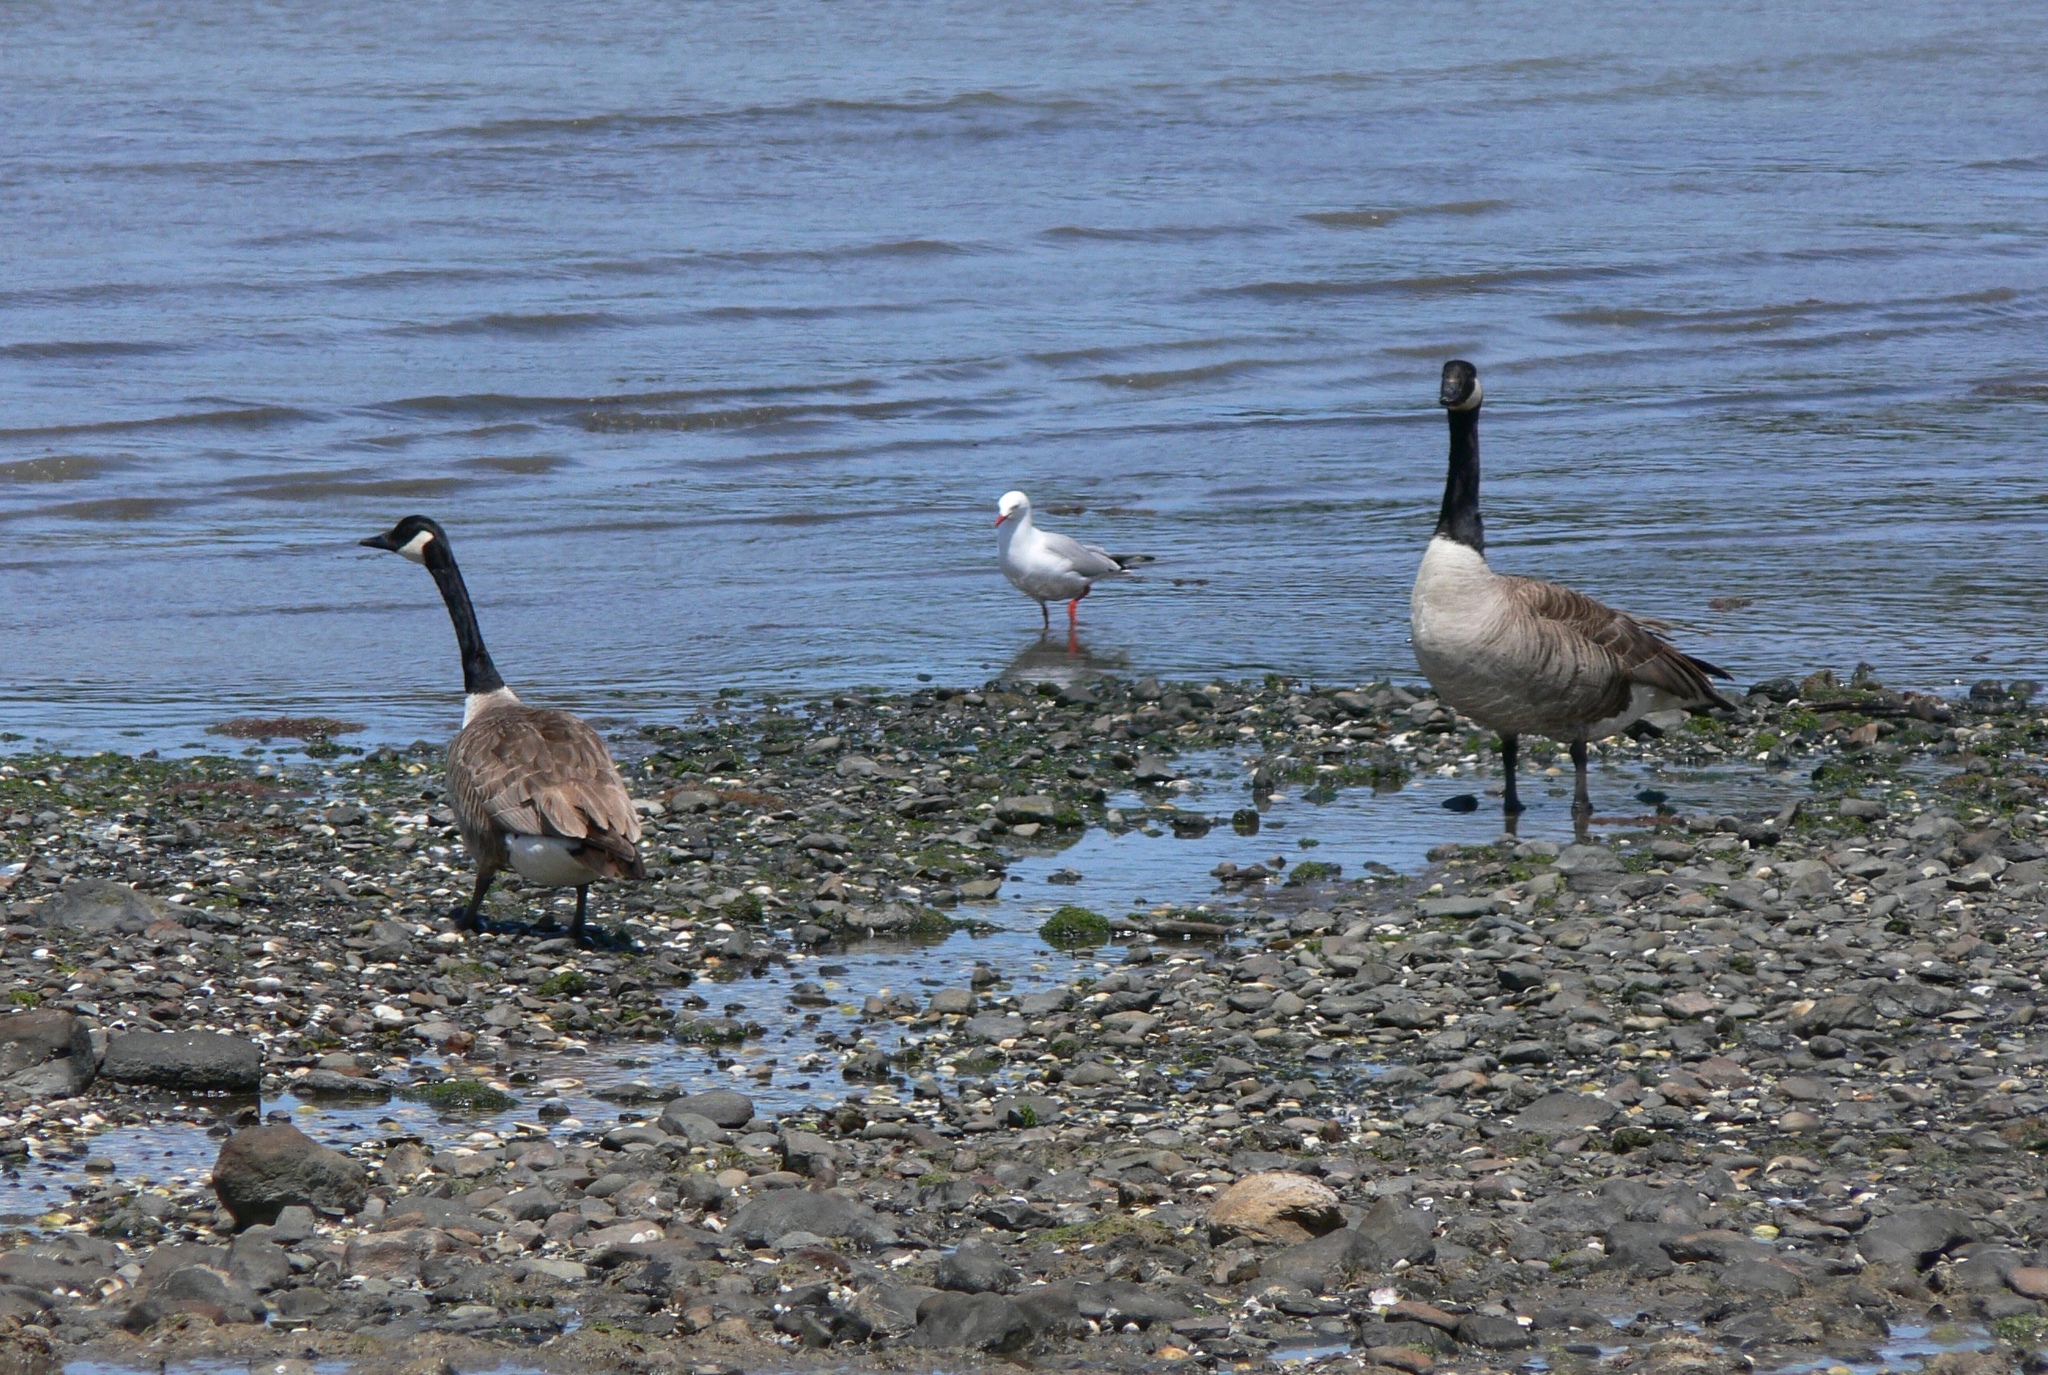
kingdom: Animalia
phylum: Chordata
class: Aves
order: Anseriformes
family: Anatidae
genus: Branta
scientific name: Branta canadensis
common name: Canada goose
